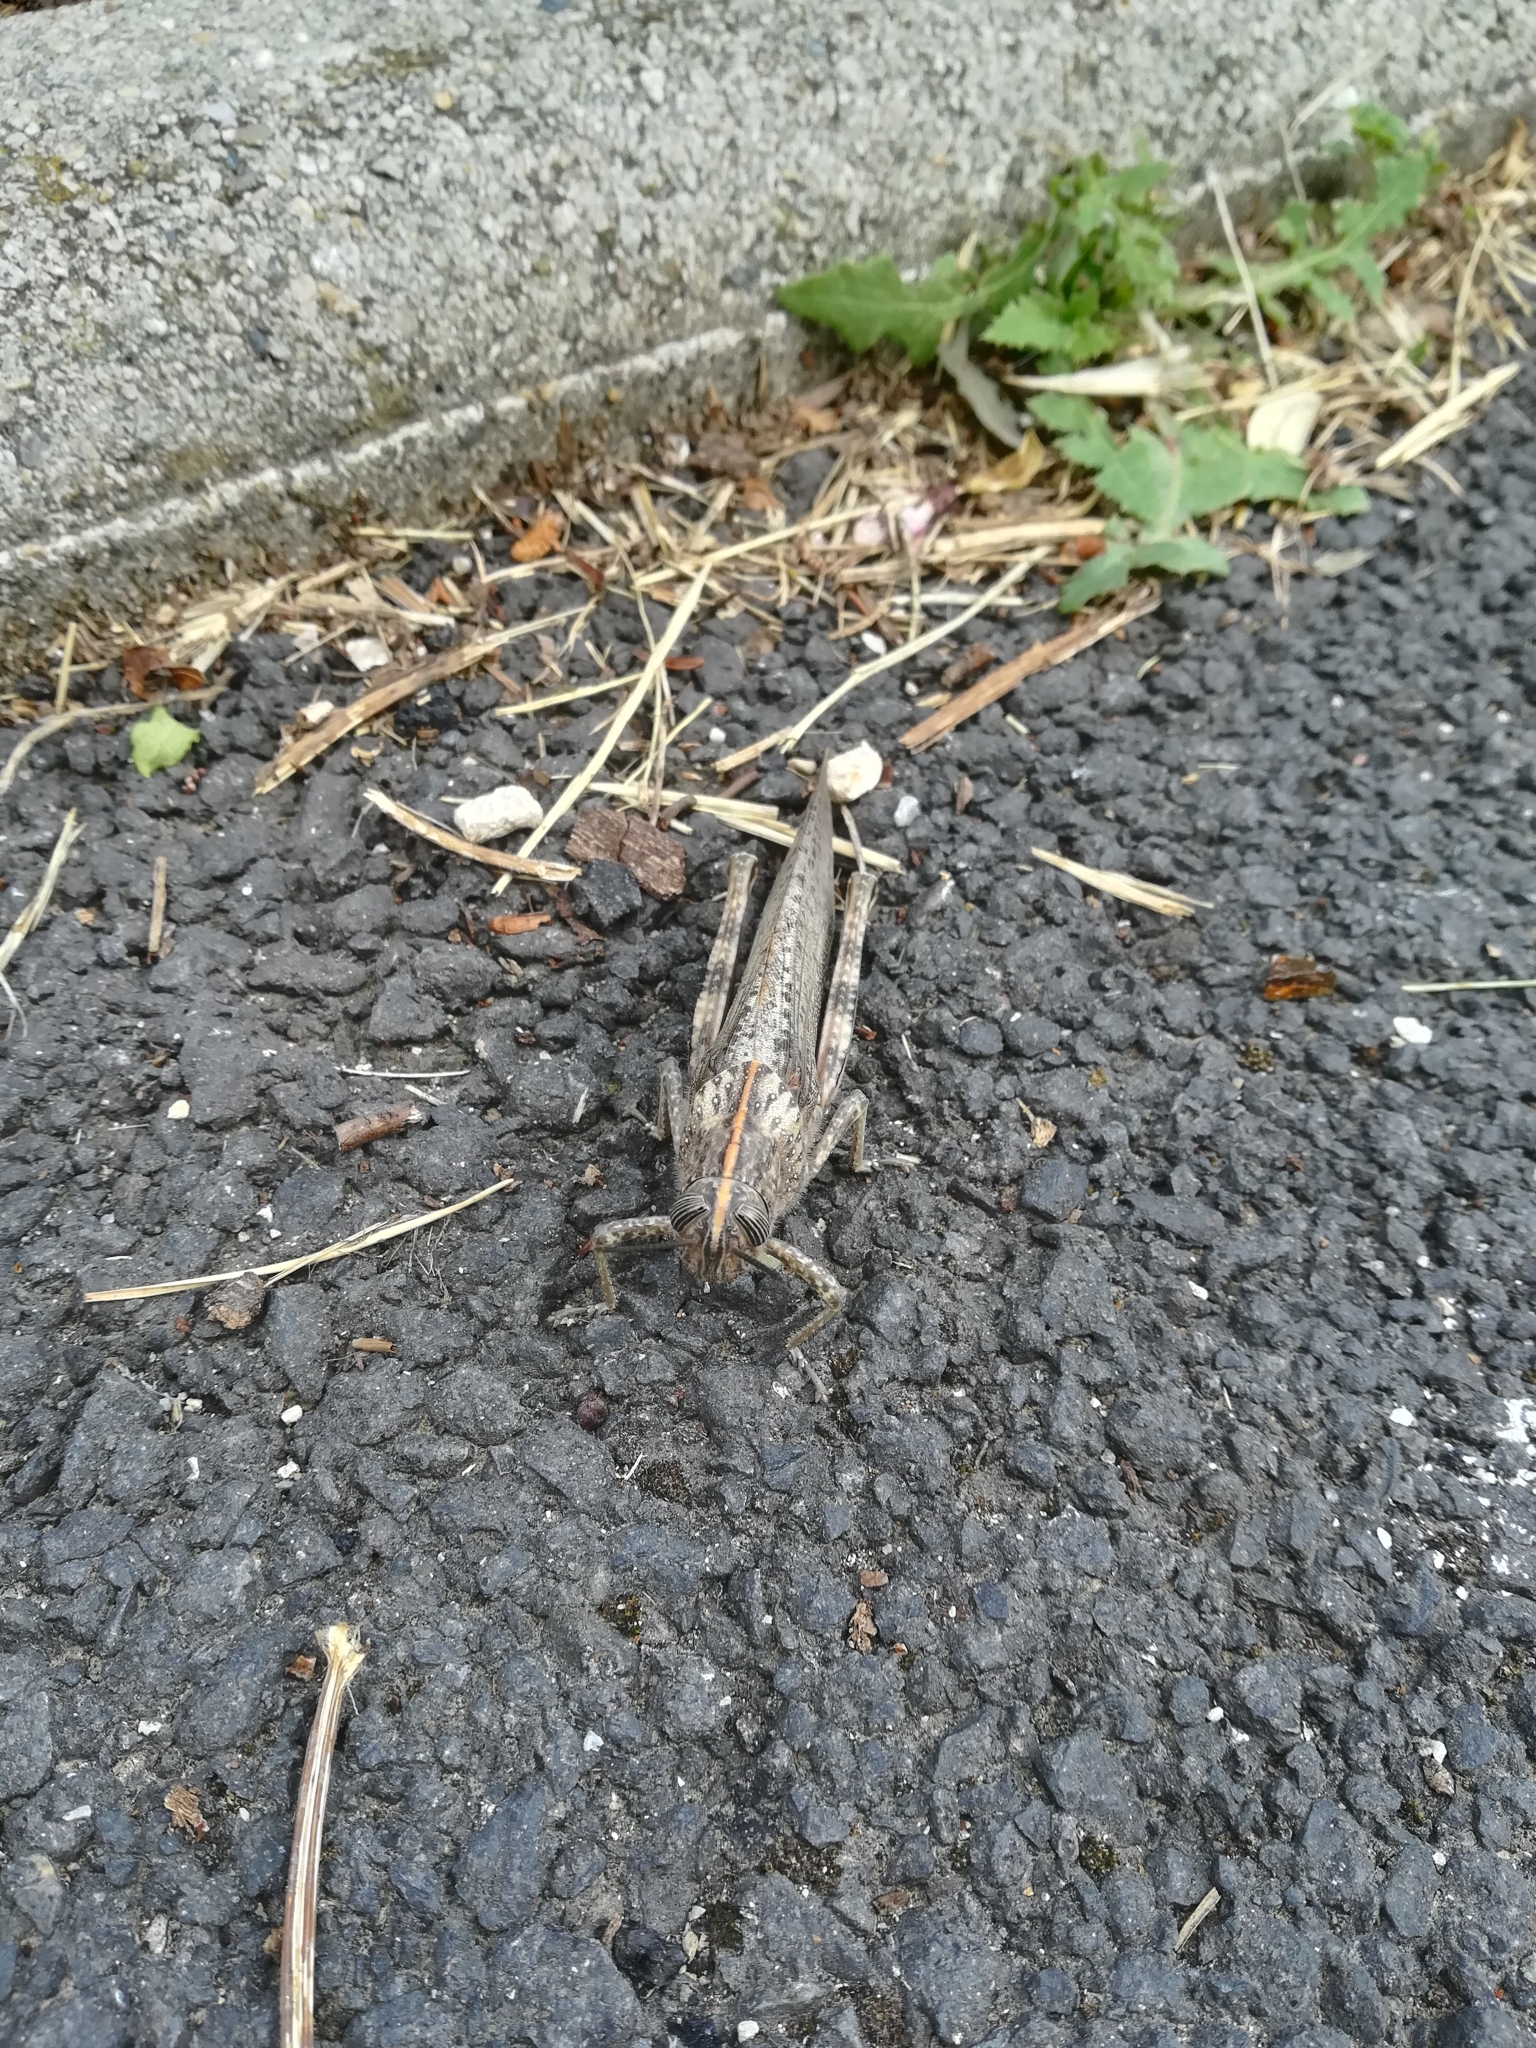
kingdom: Animalia
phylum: Arthropoda
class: Insecta
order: Orthoptera
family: Acrididae
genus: Anacridium
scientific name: Anacridium aegyptium
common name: Egyptian grasshopper
